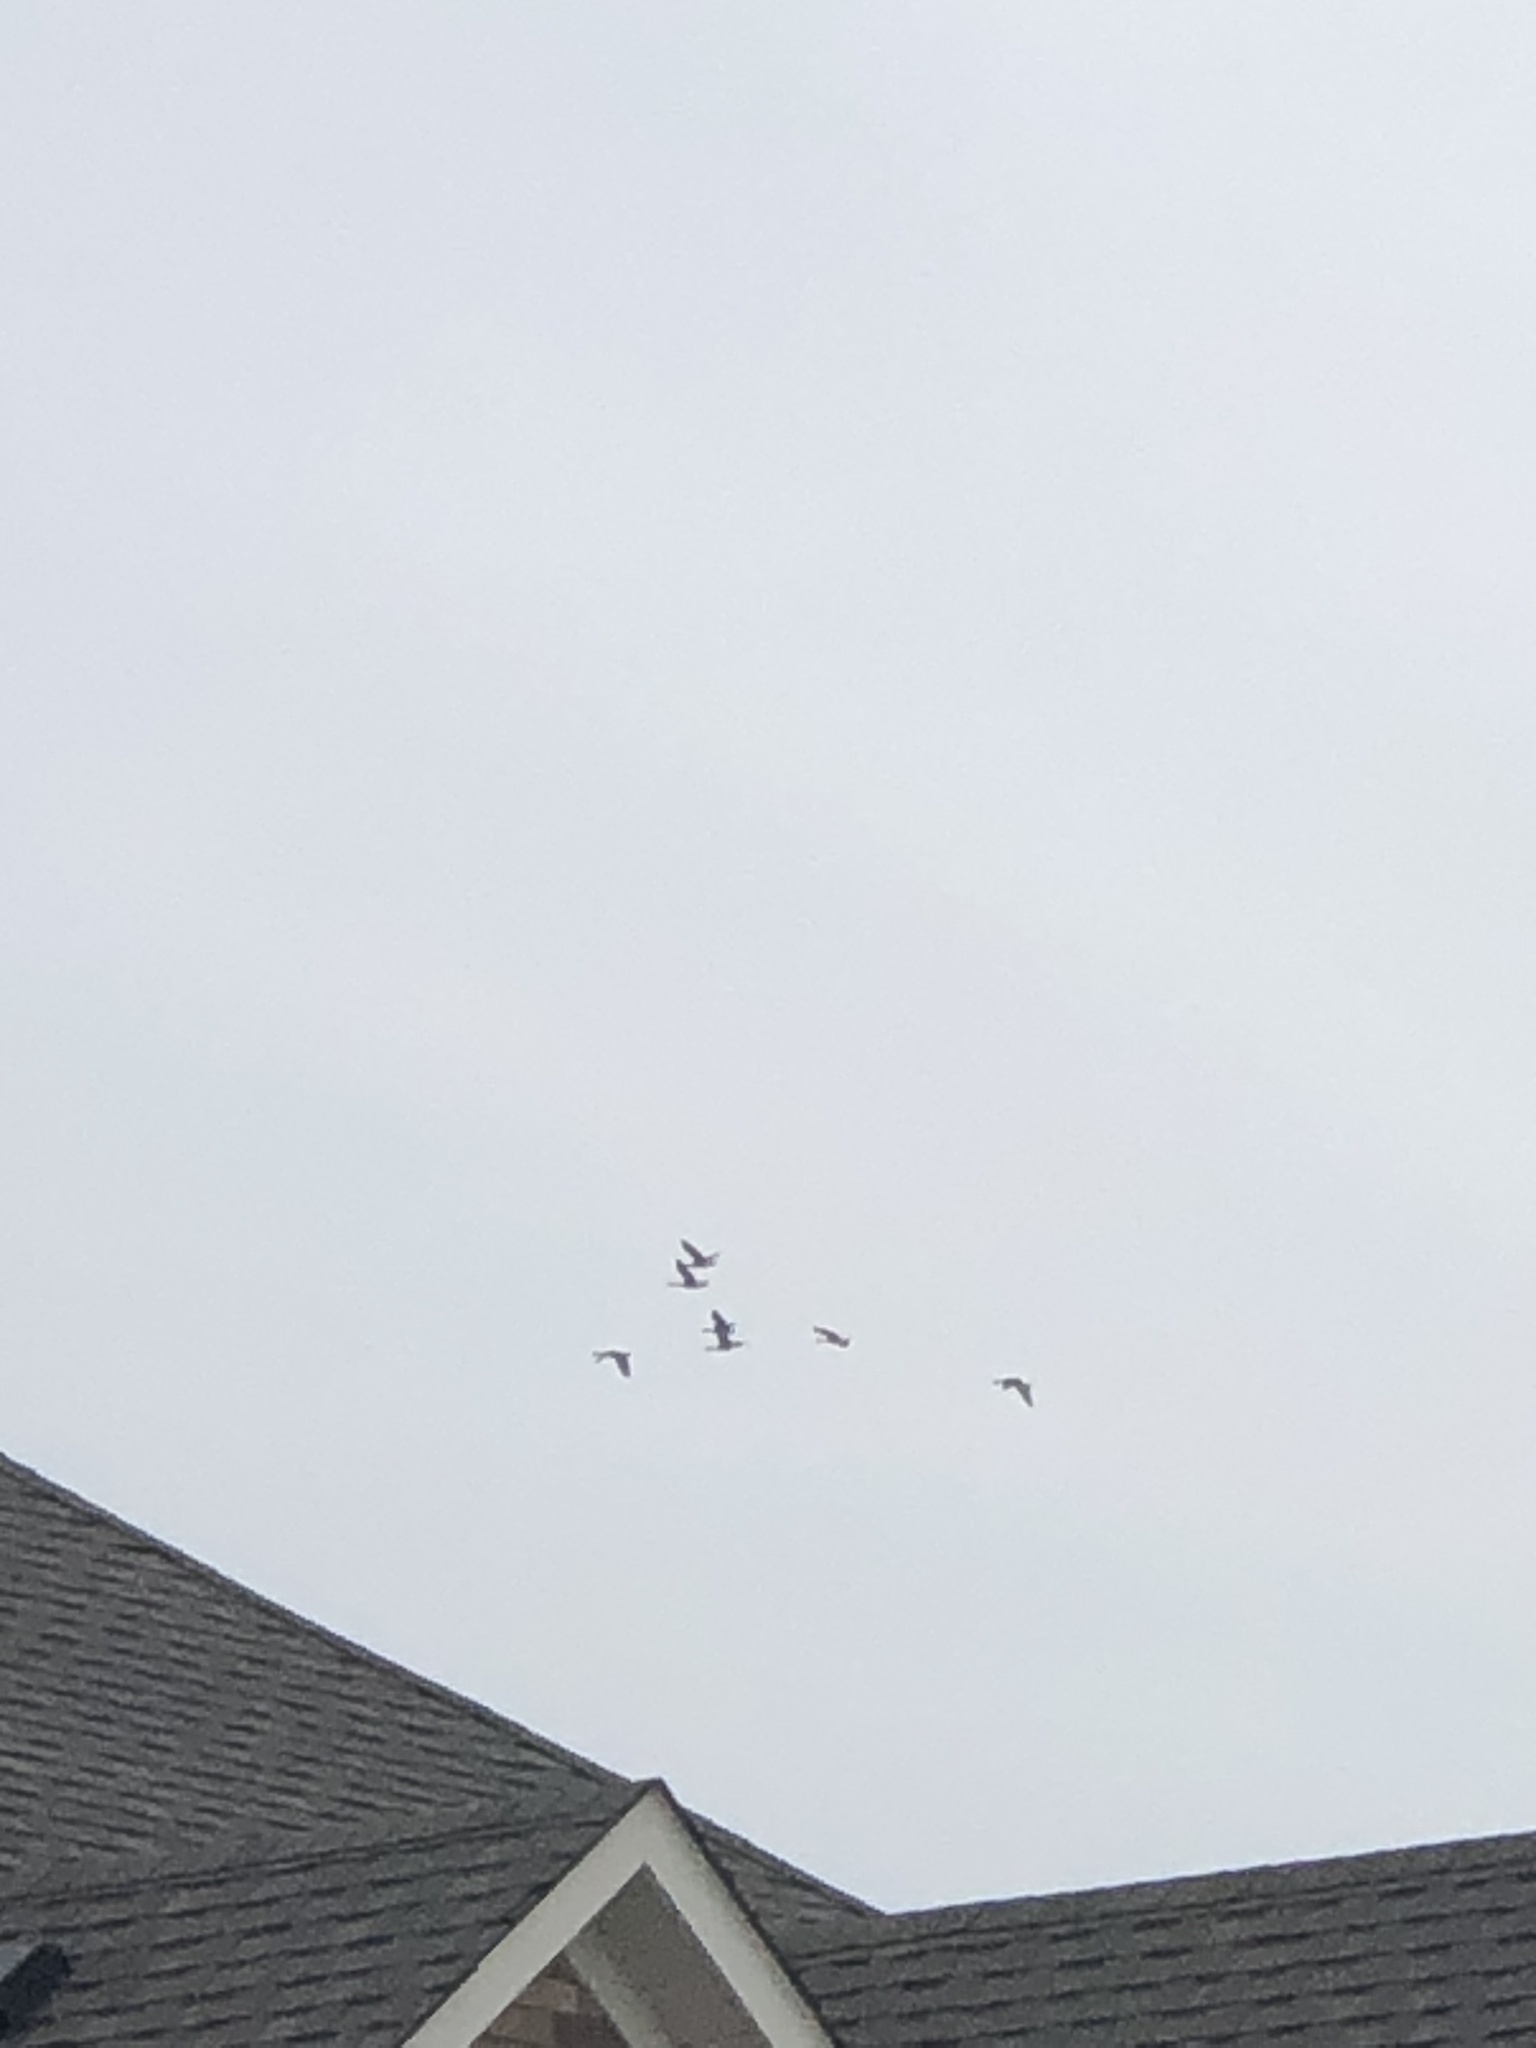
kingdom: Animalia
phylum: Chordata
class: Aves
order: Anseriformes
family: Anatidae
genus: Branta
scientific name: Branta canadensis
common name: Canada goose
